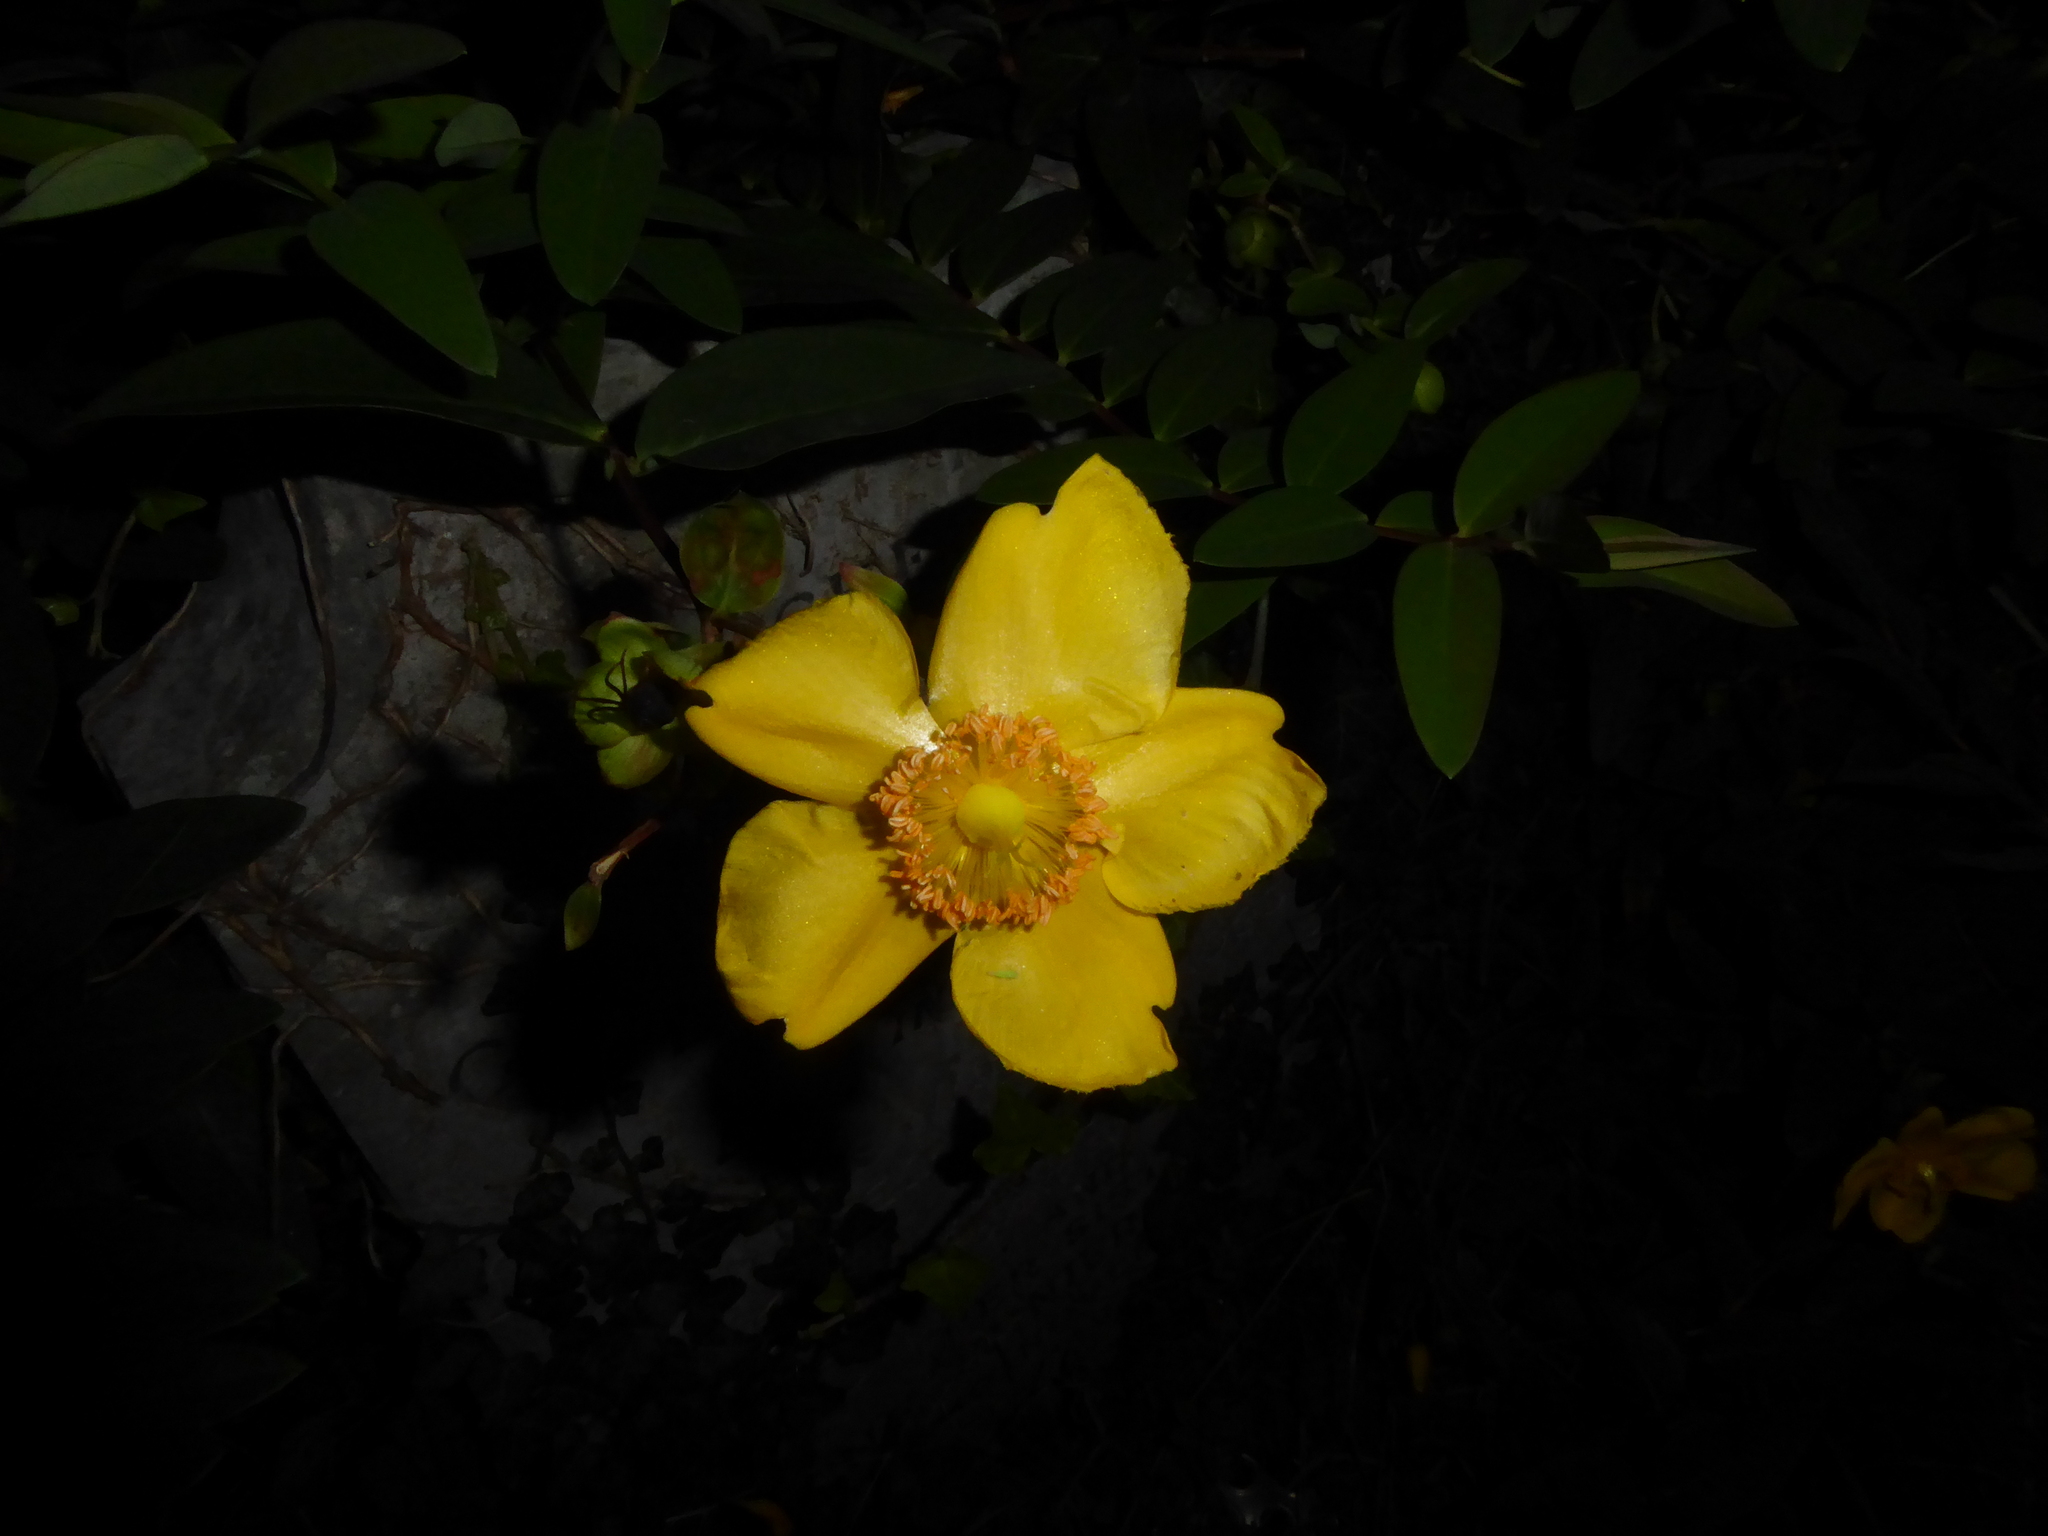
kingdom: Plantae
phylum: Tracheophyta
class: Magnoliopsida
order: Malpighiales
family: Hypericaceae
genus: Hypericum
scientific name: Hypericum hidcoteense
